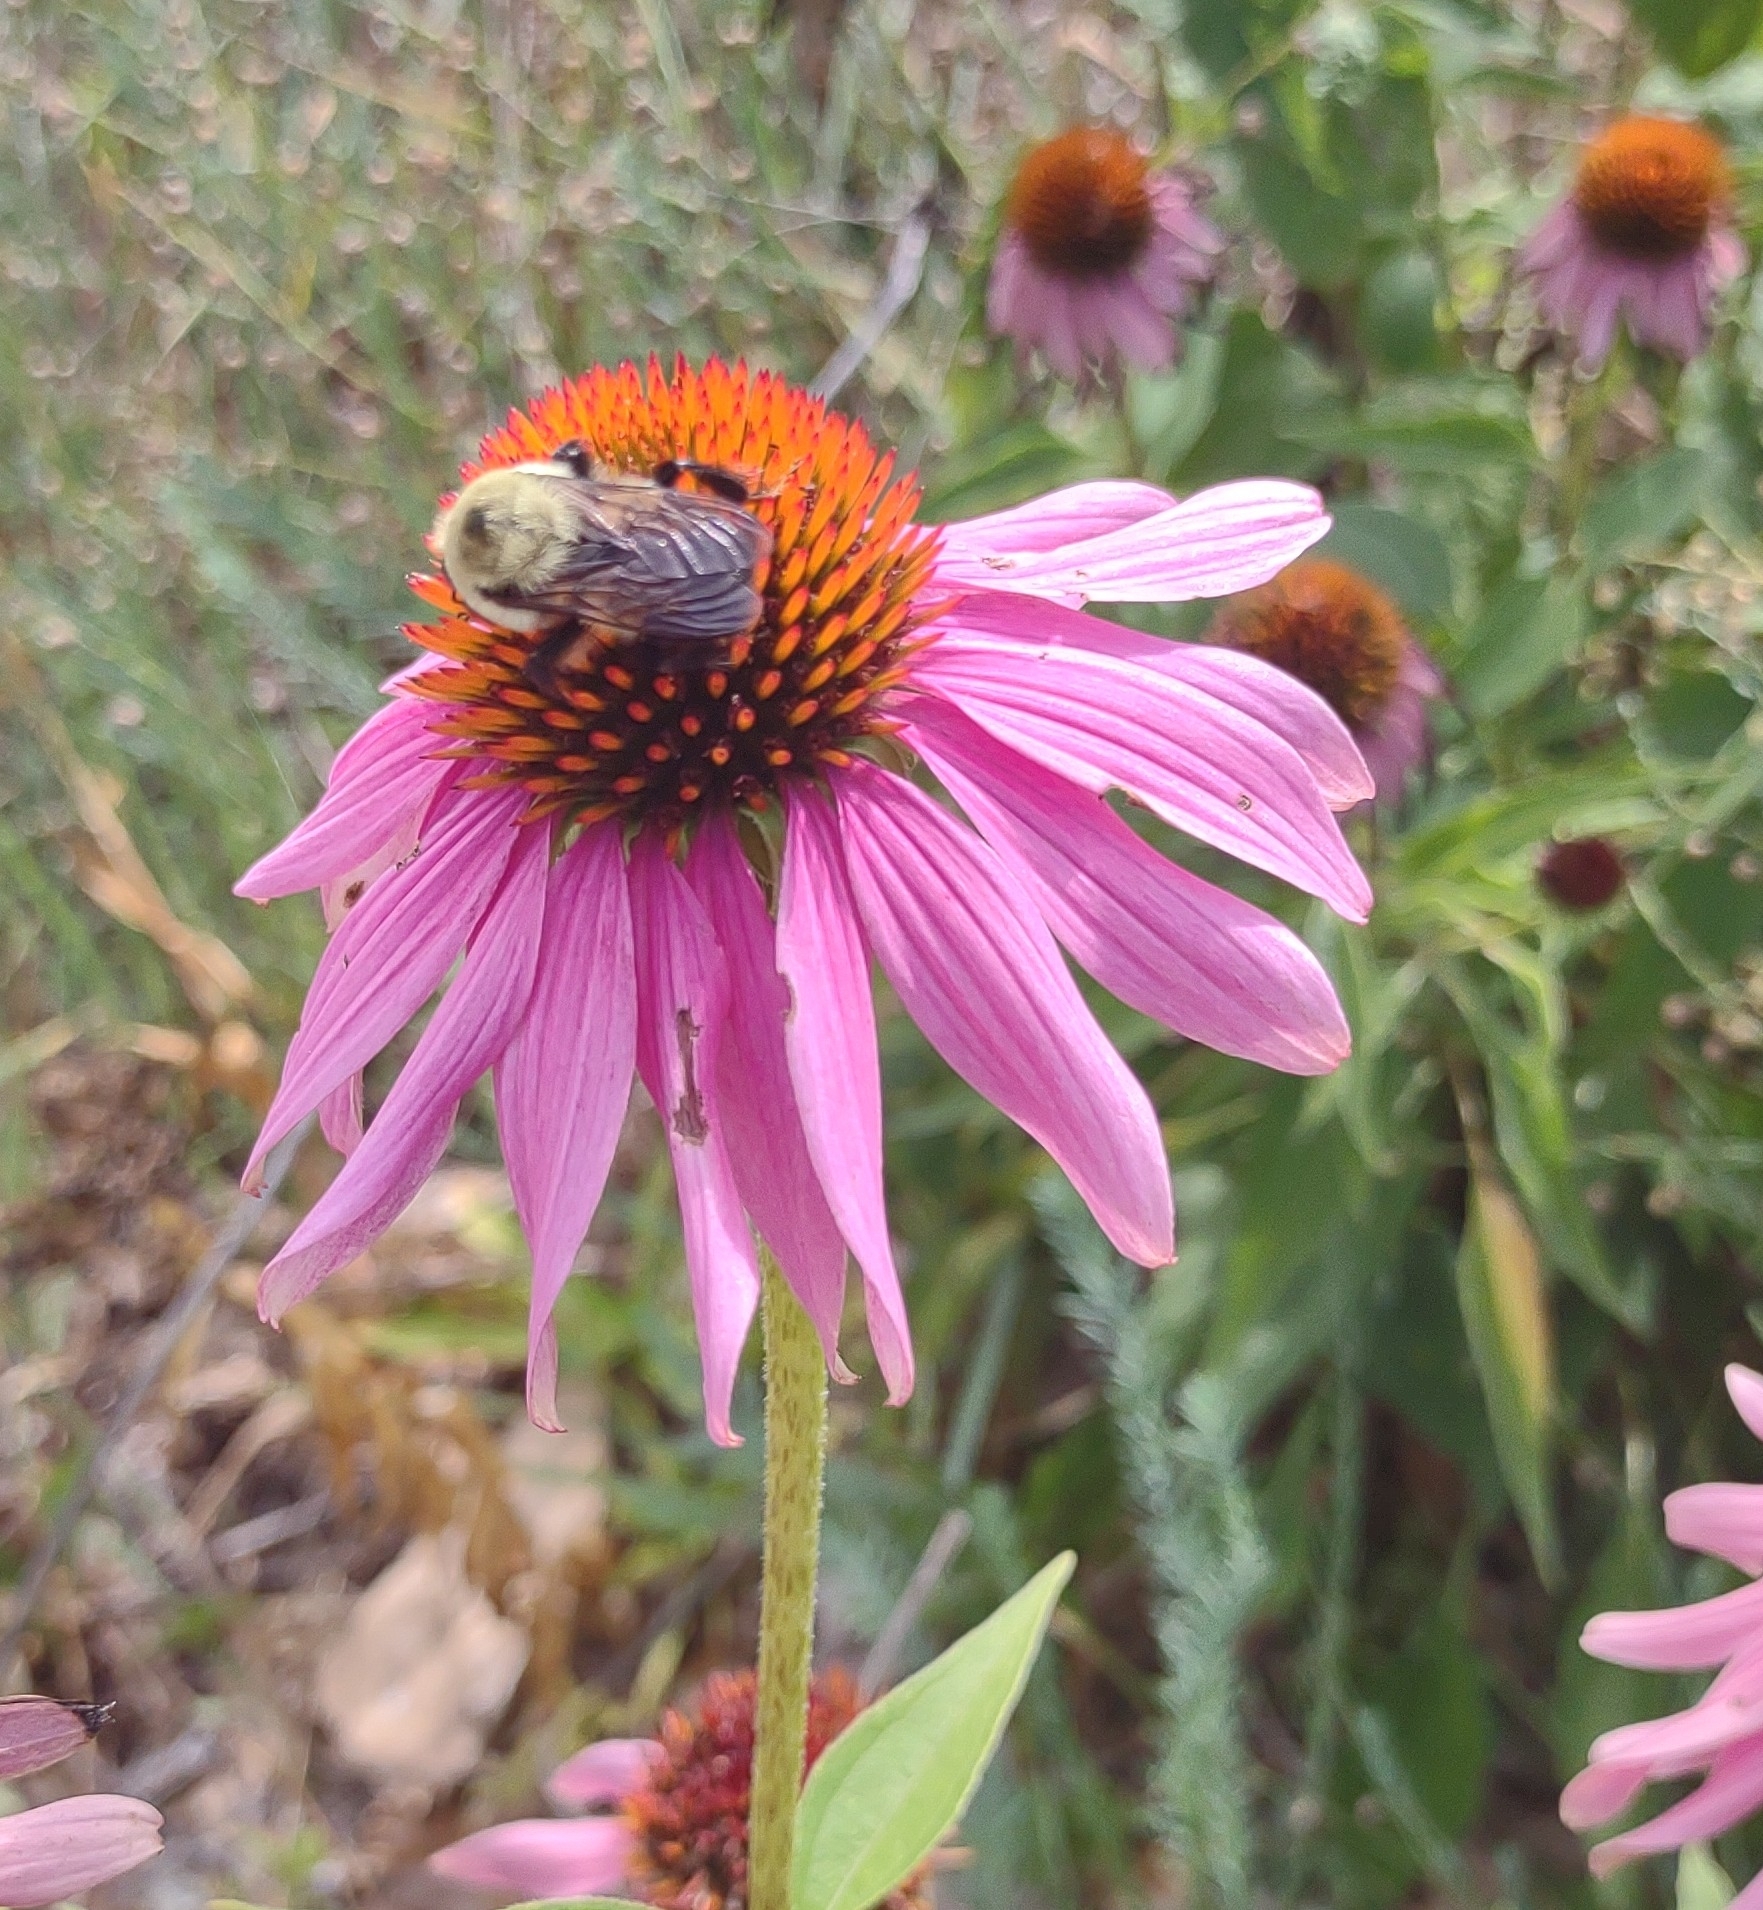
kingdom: Animalia
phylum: Arthropoda
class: Insecta
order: Hymenoptera
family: Apidae
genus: Bombus
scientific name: Bombus griseocollis
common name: Brown-belted bumble bee
